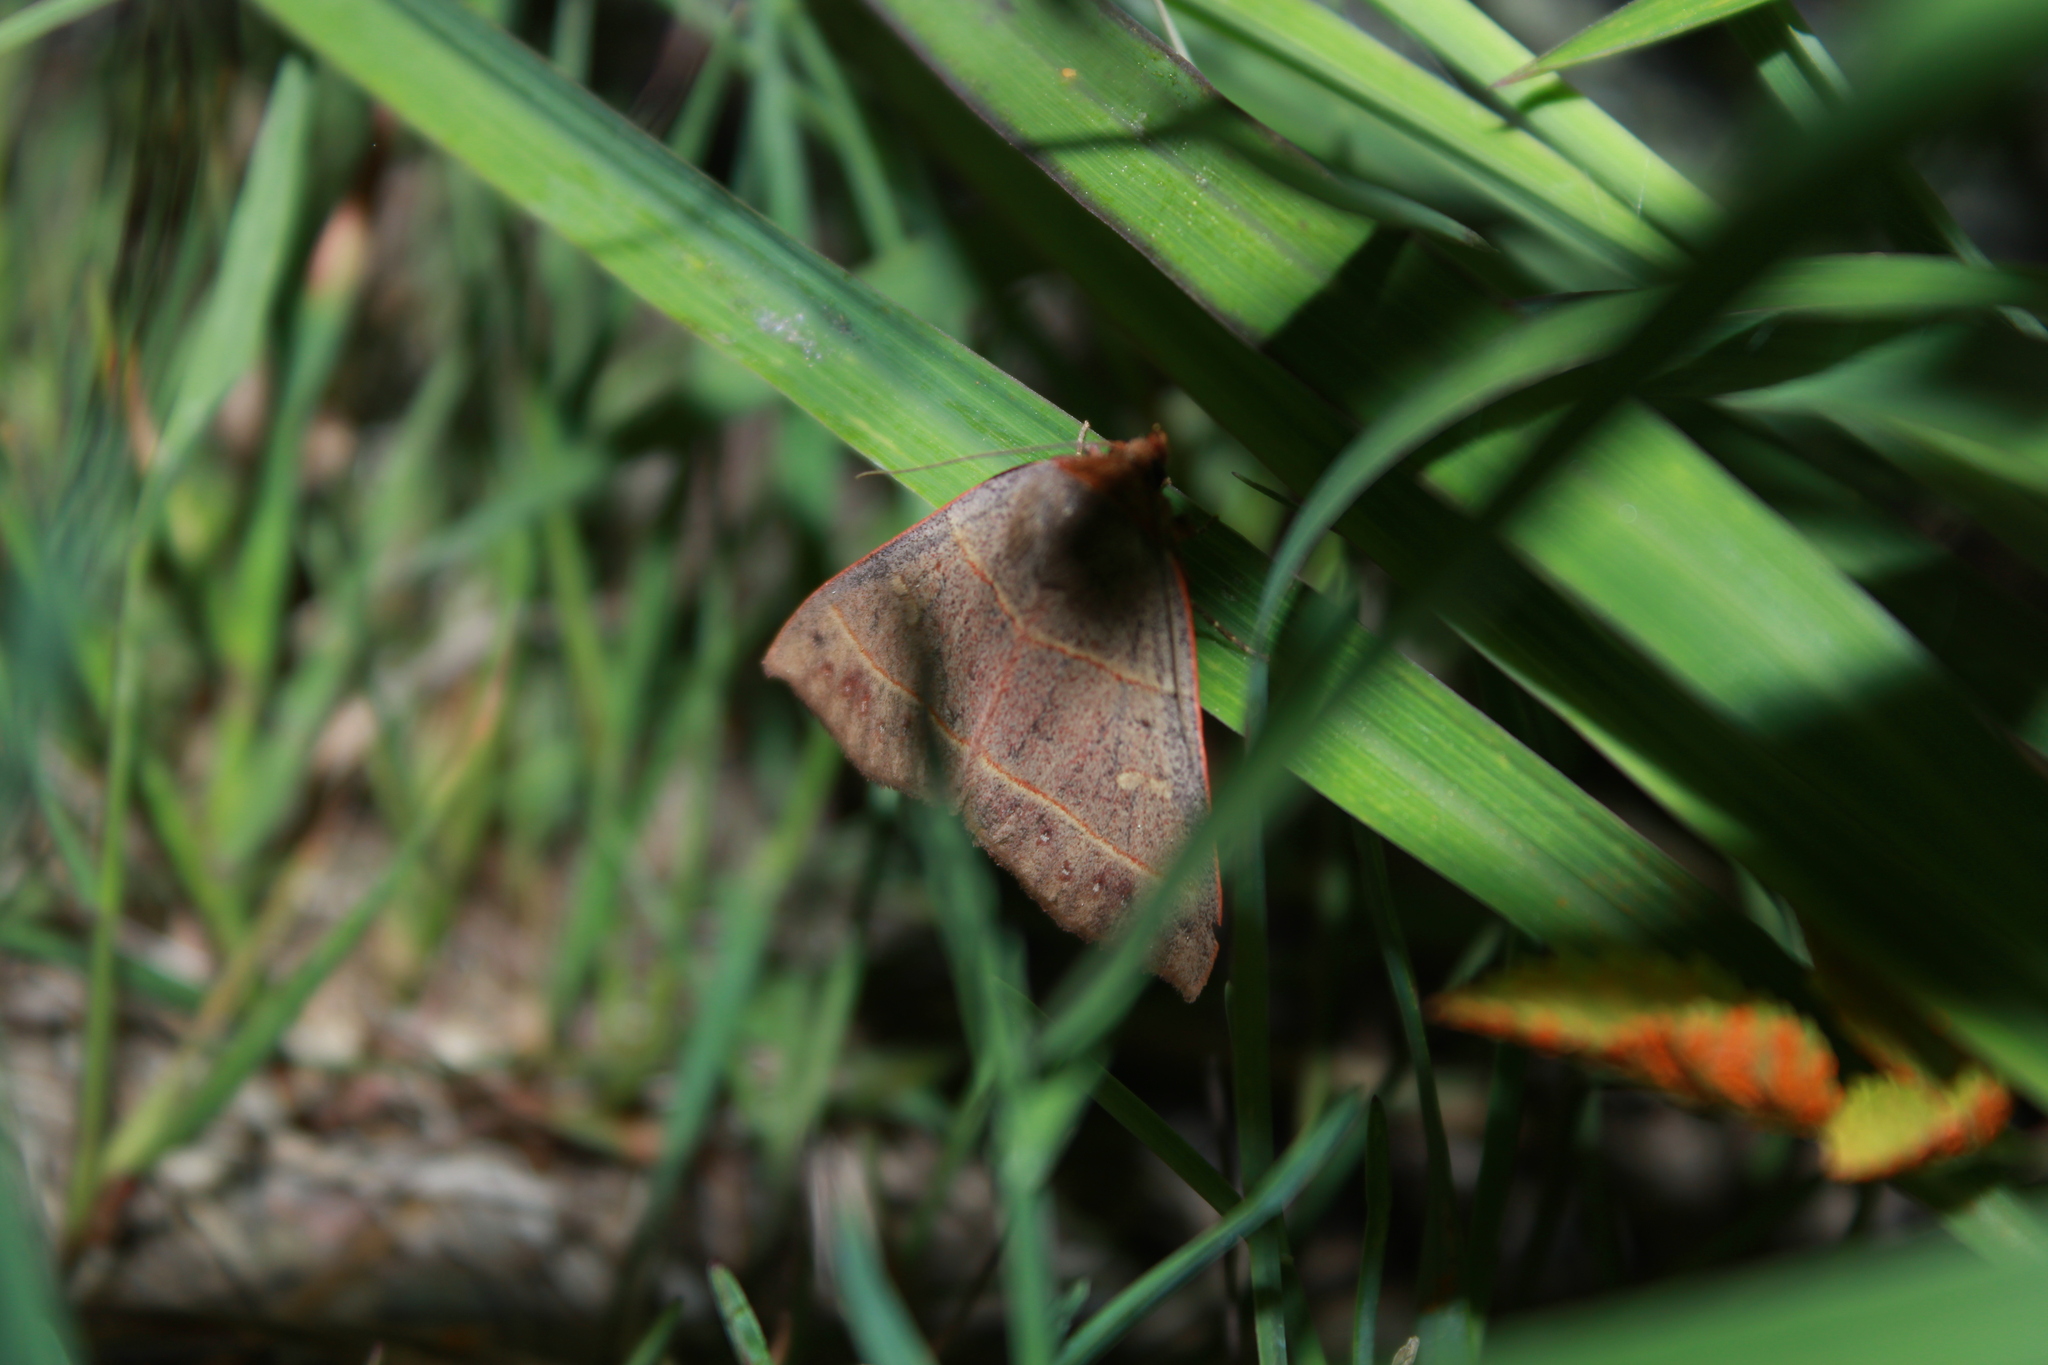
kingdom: Animalia
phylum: Arthropoda
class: Insecta
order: Lepidoptera
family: Erebidae
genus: Panopoda
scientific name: Panopoda rufimargo
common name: Red-lined panopoda moth
